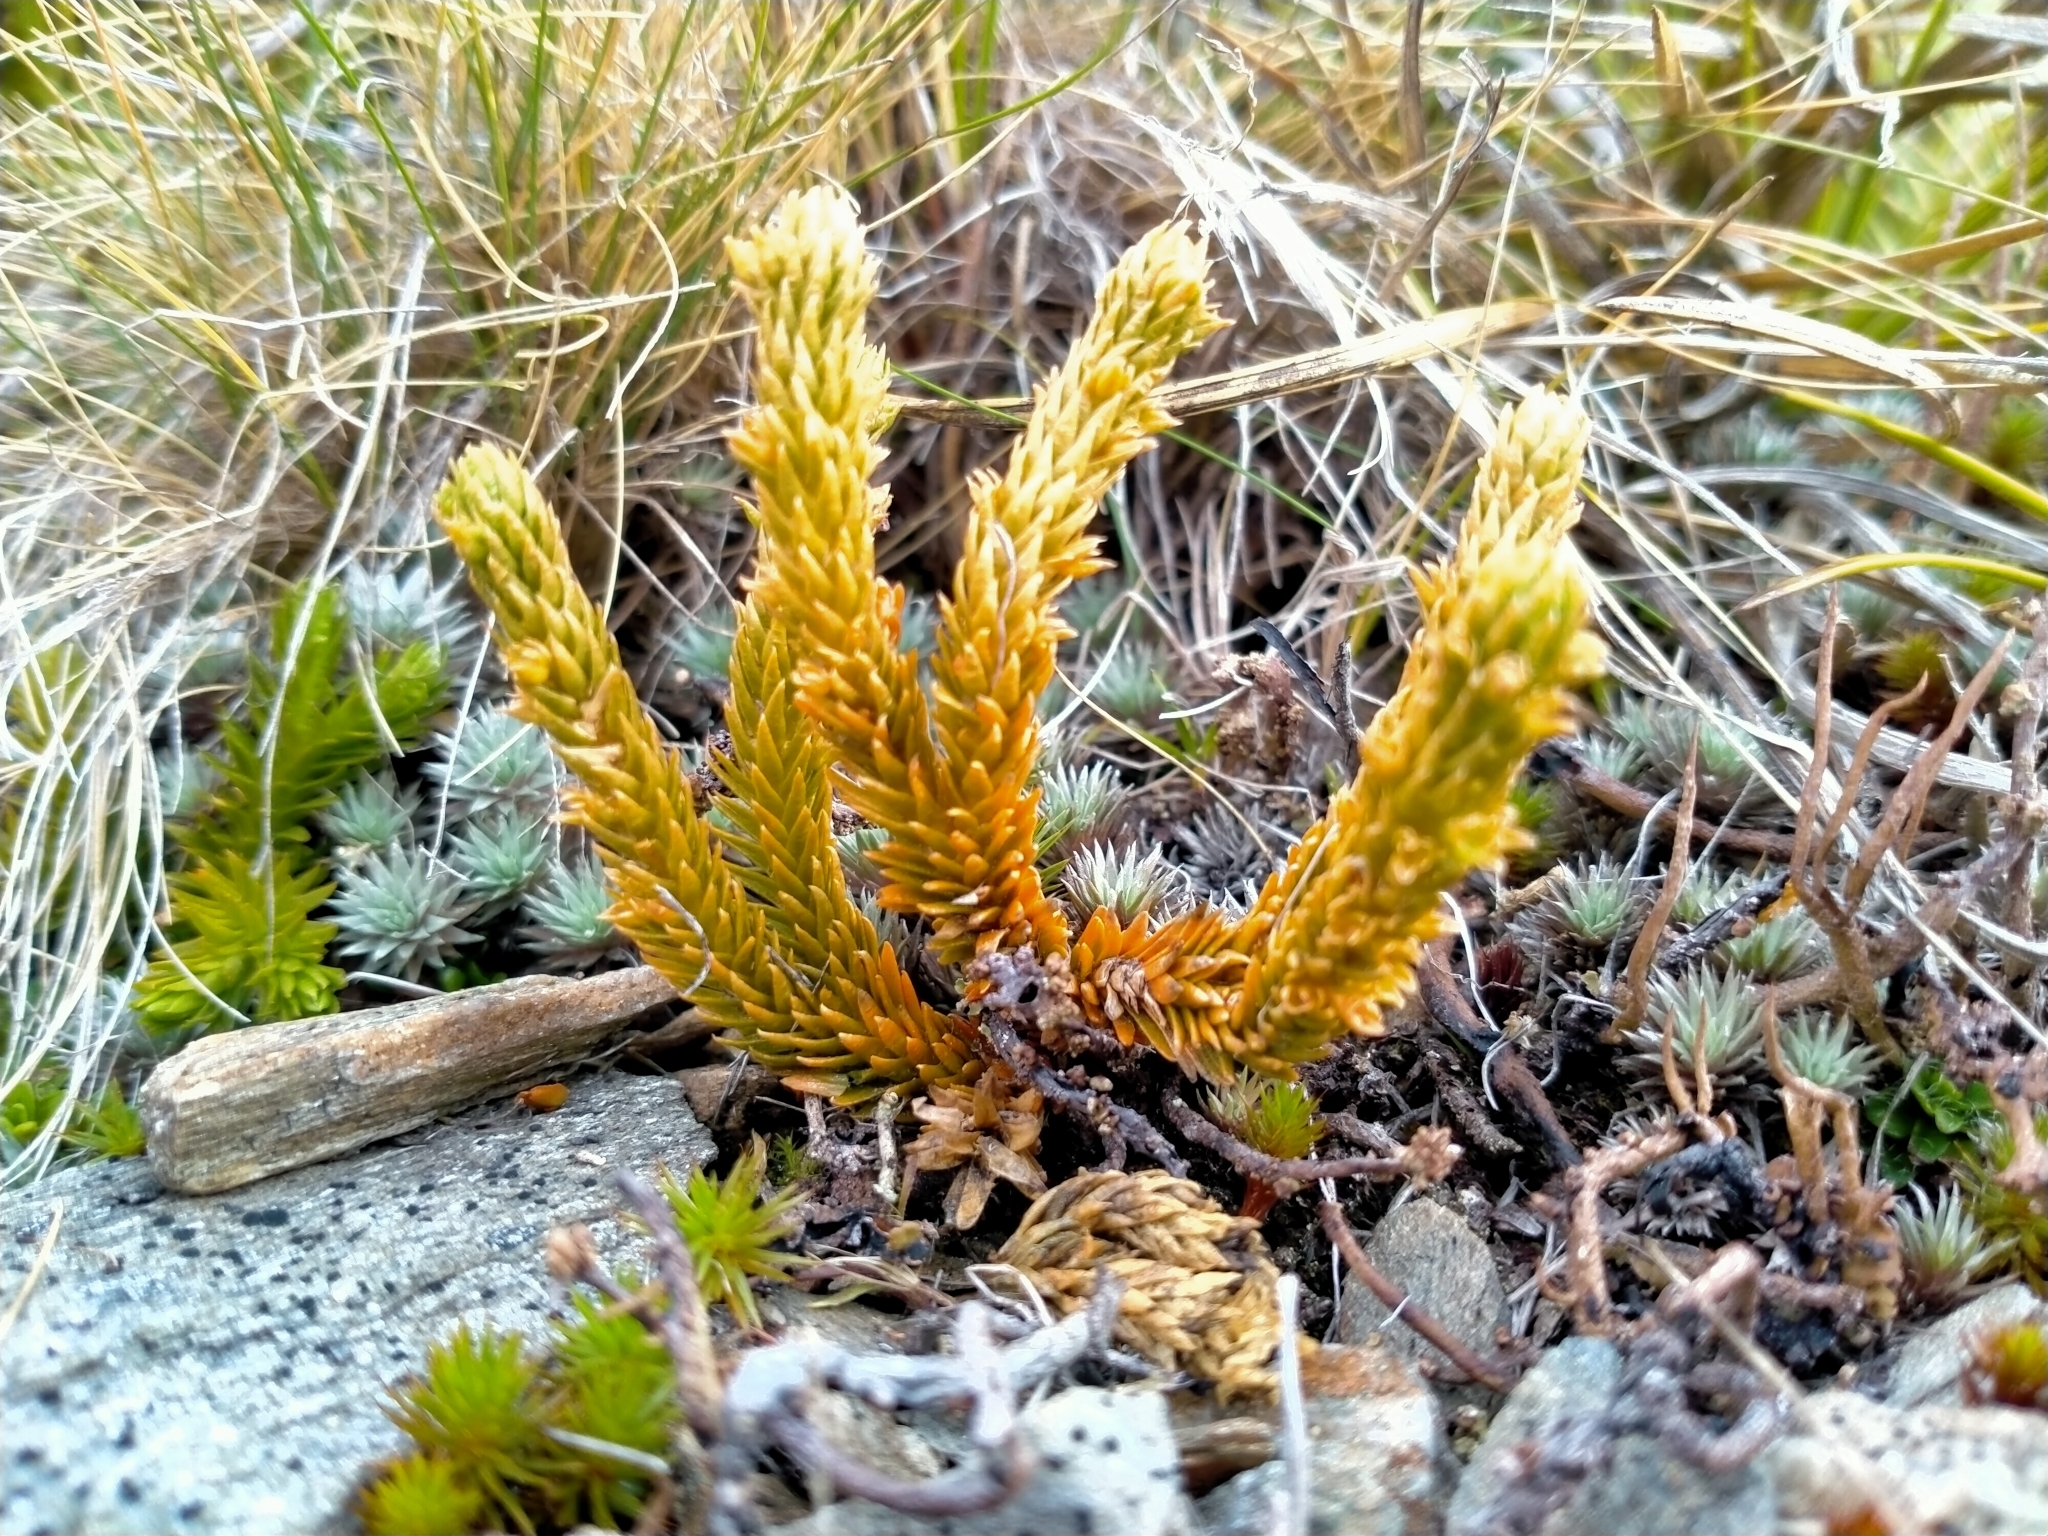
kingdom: Plantae
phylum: Tracheophyta
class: Lycopodiopsida
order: Lycopodiales
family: Lycopodiaceae
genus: Huperzia
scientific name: Huperzia australiana
